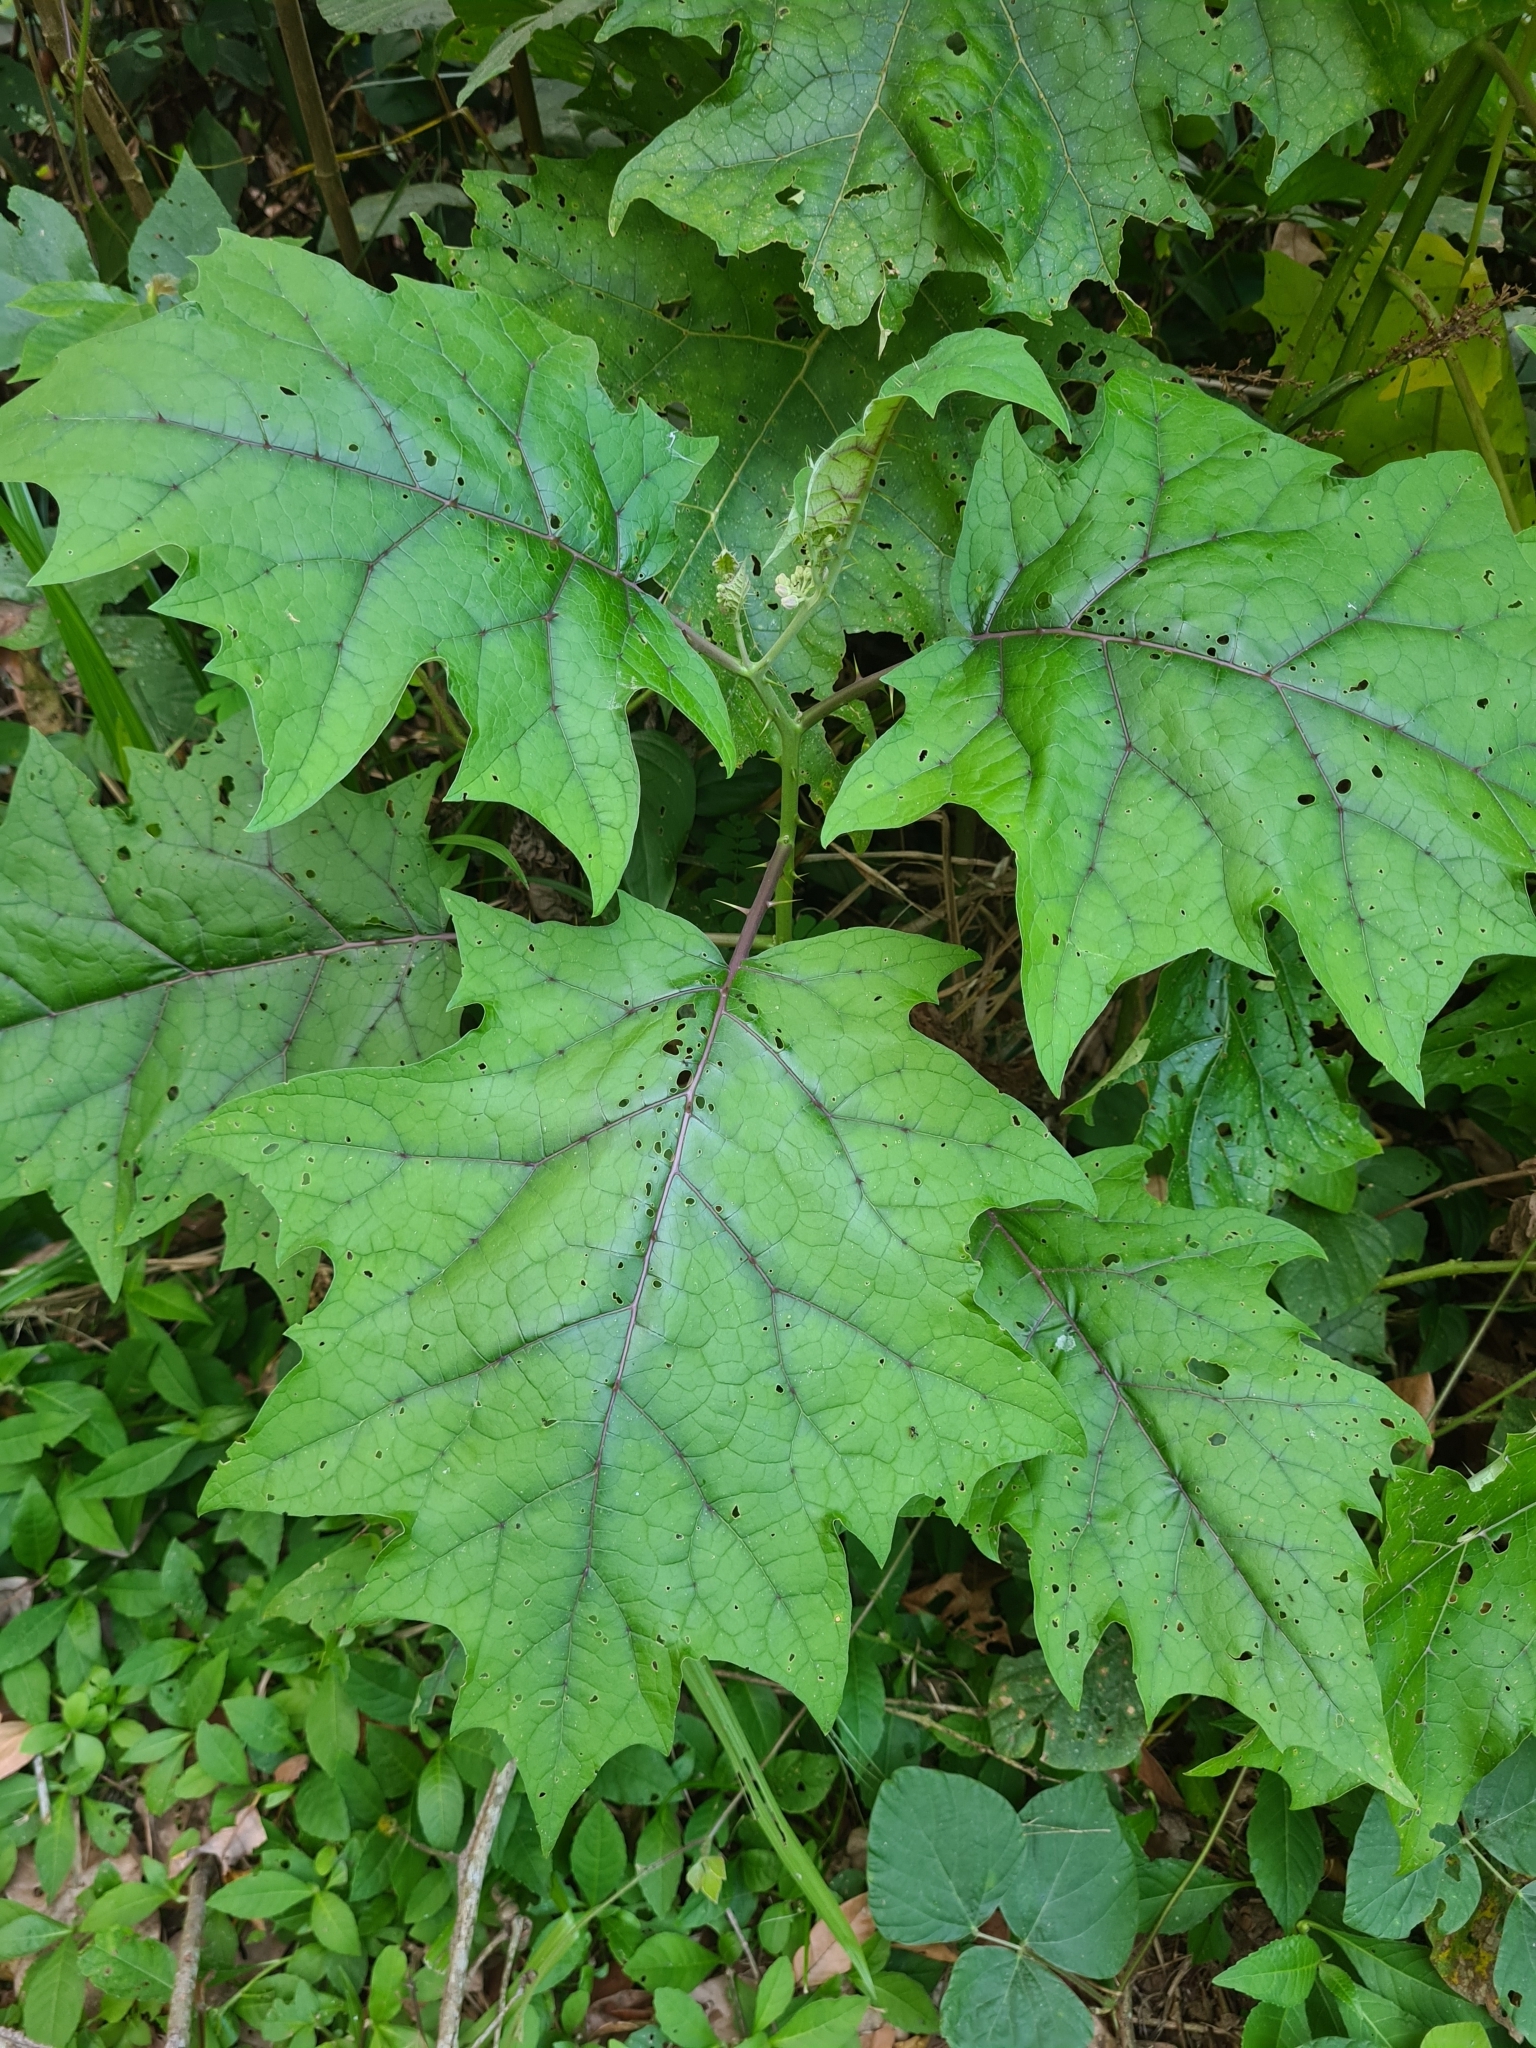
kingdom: Plantae
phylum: Tracheophyta
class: Magnoliopsida
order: Solanales
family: Solanaceae
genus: Solanum
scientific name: Solanum
